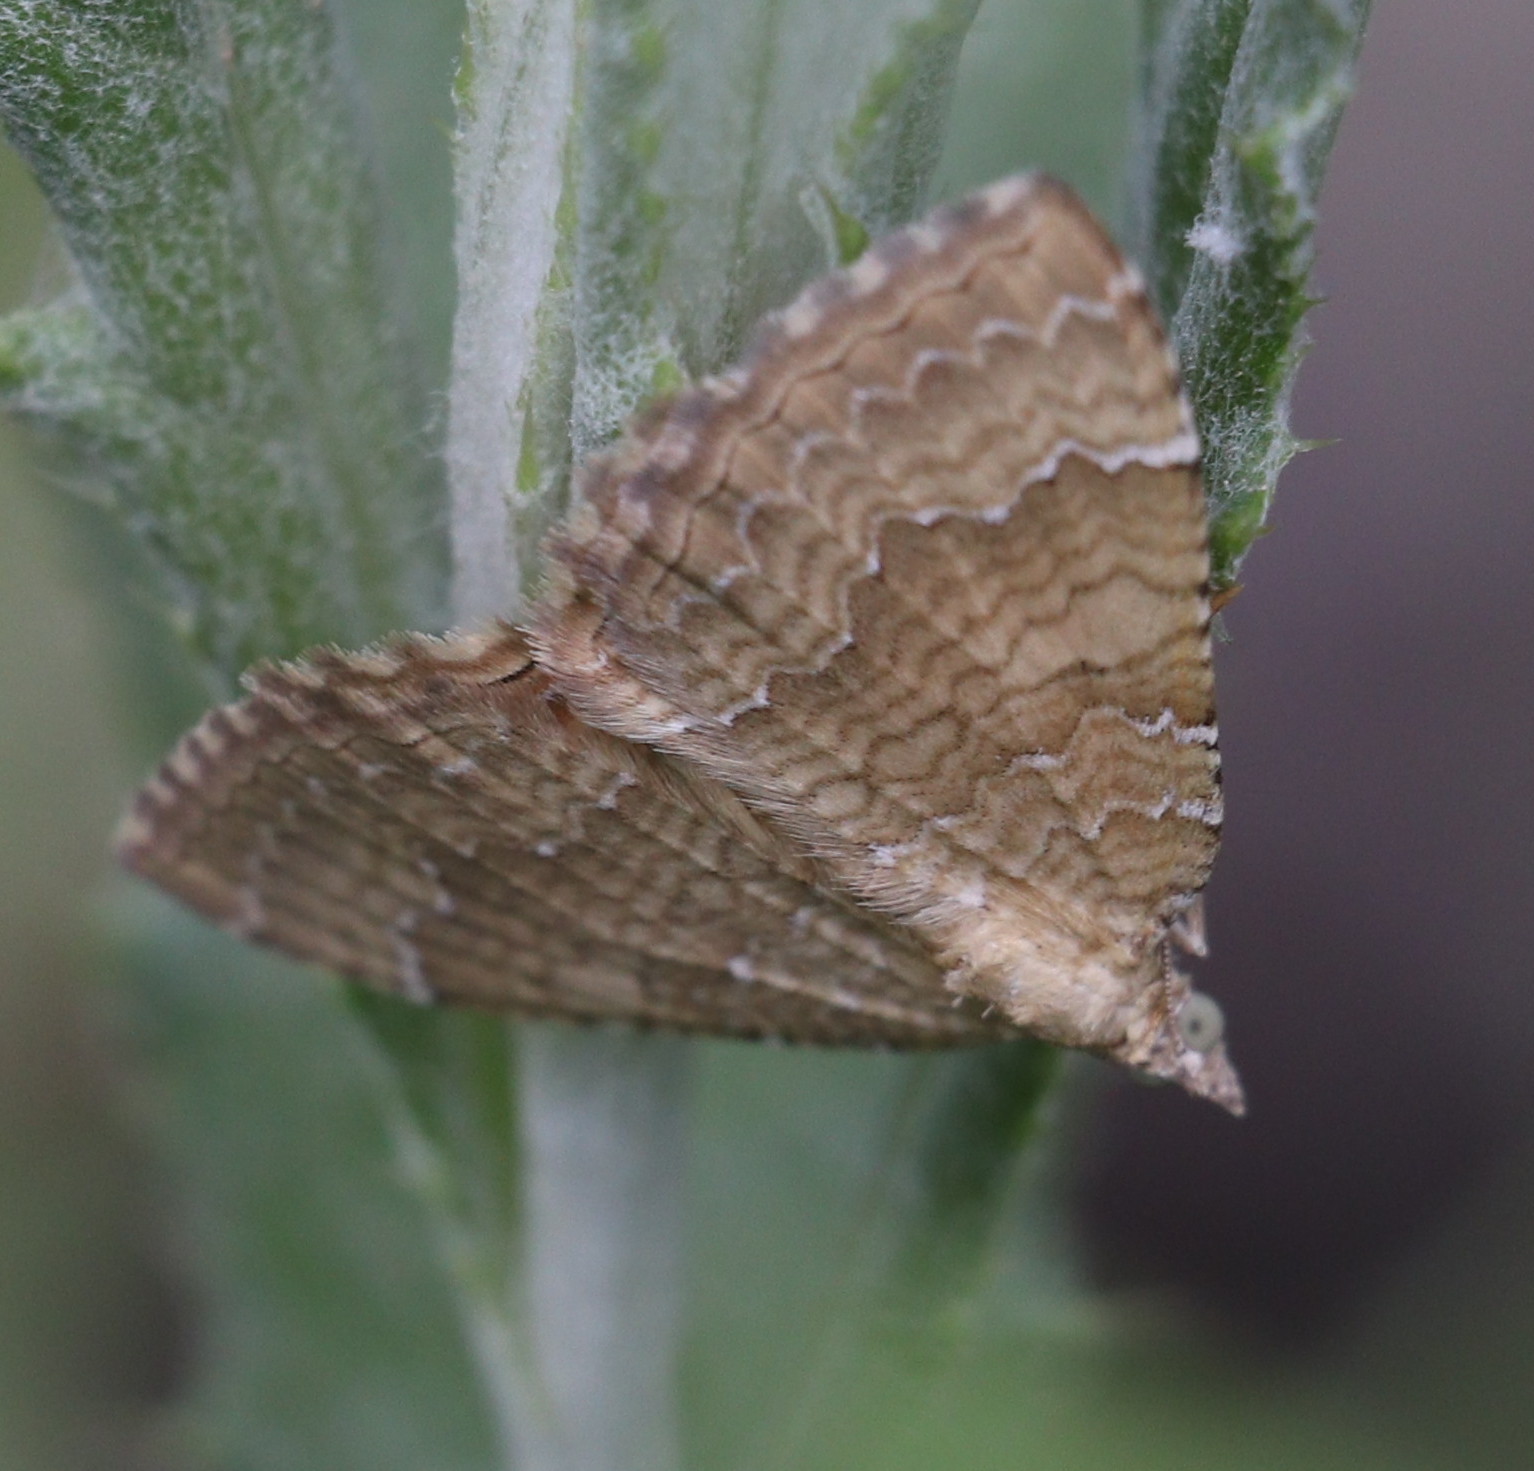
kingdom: Animalia
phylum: Arthropoda
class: Insecta
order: Lepidoptera
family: Geometridae
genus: Camptogramma
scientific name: Camptogramma bilineata
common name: Yellow shell
